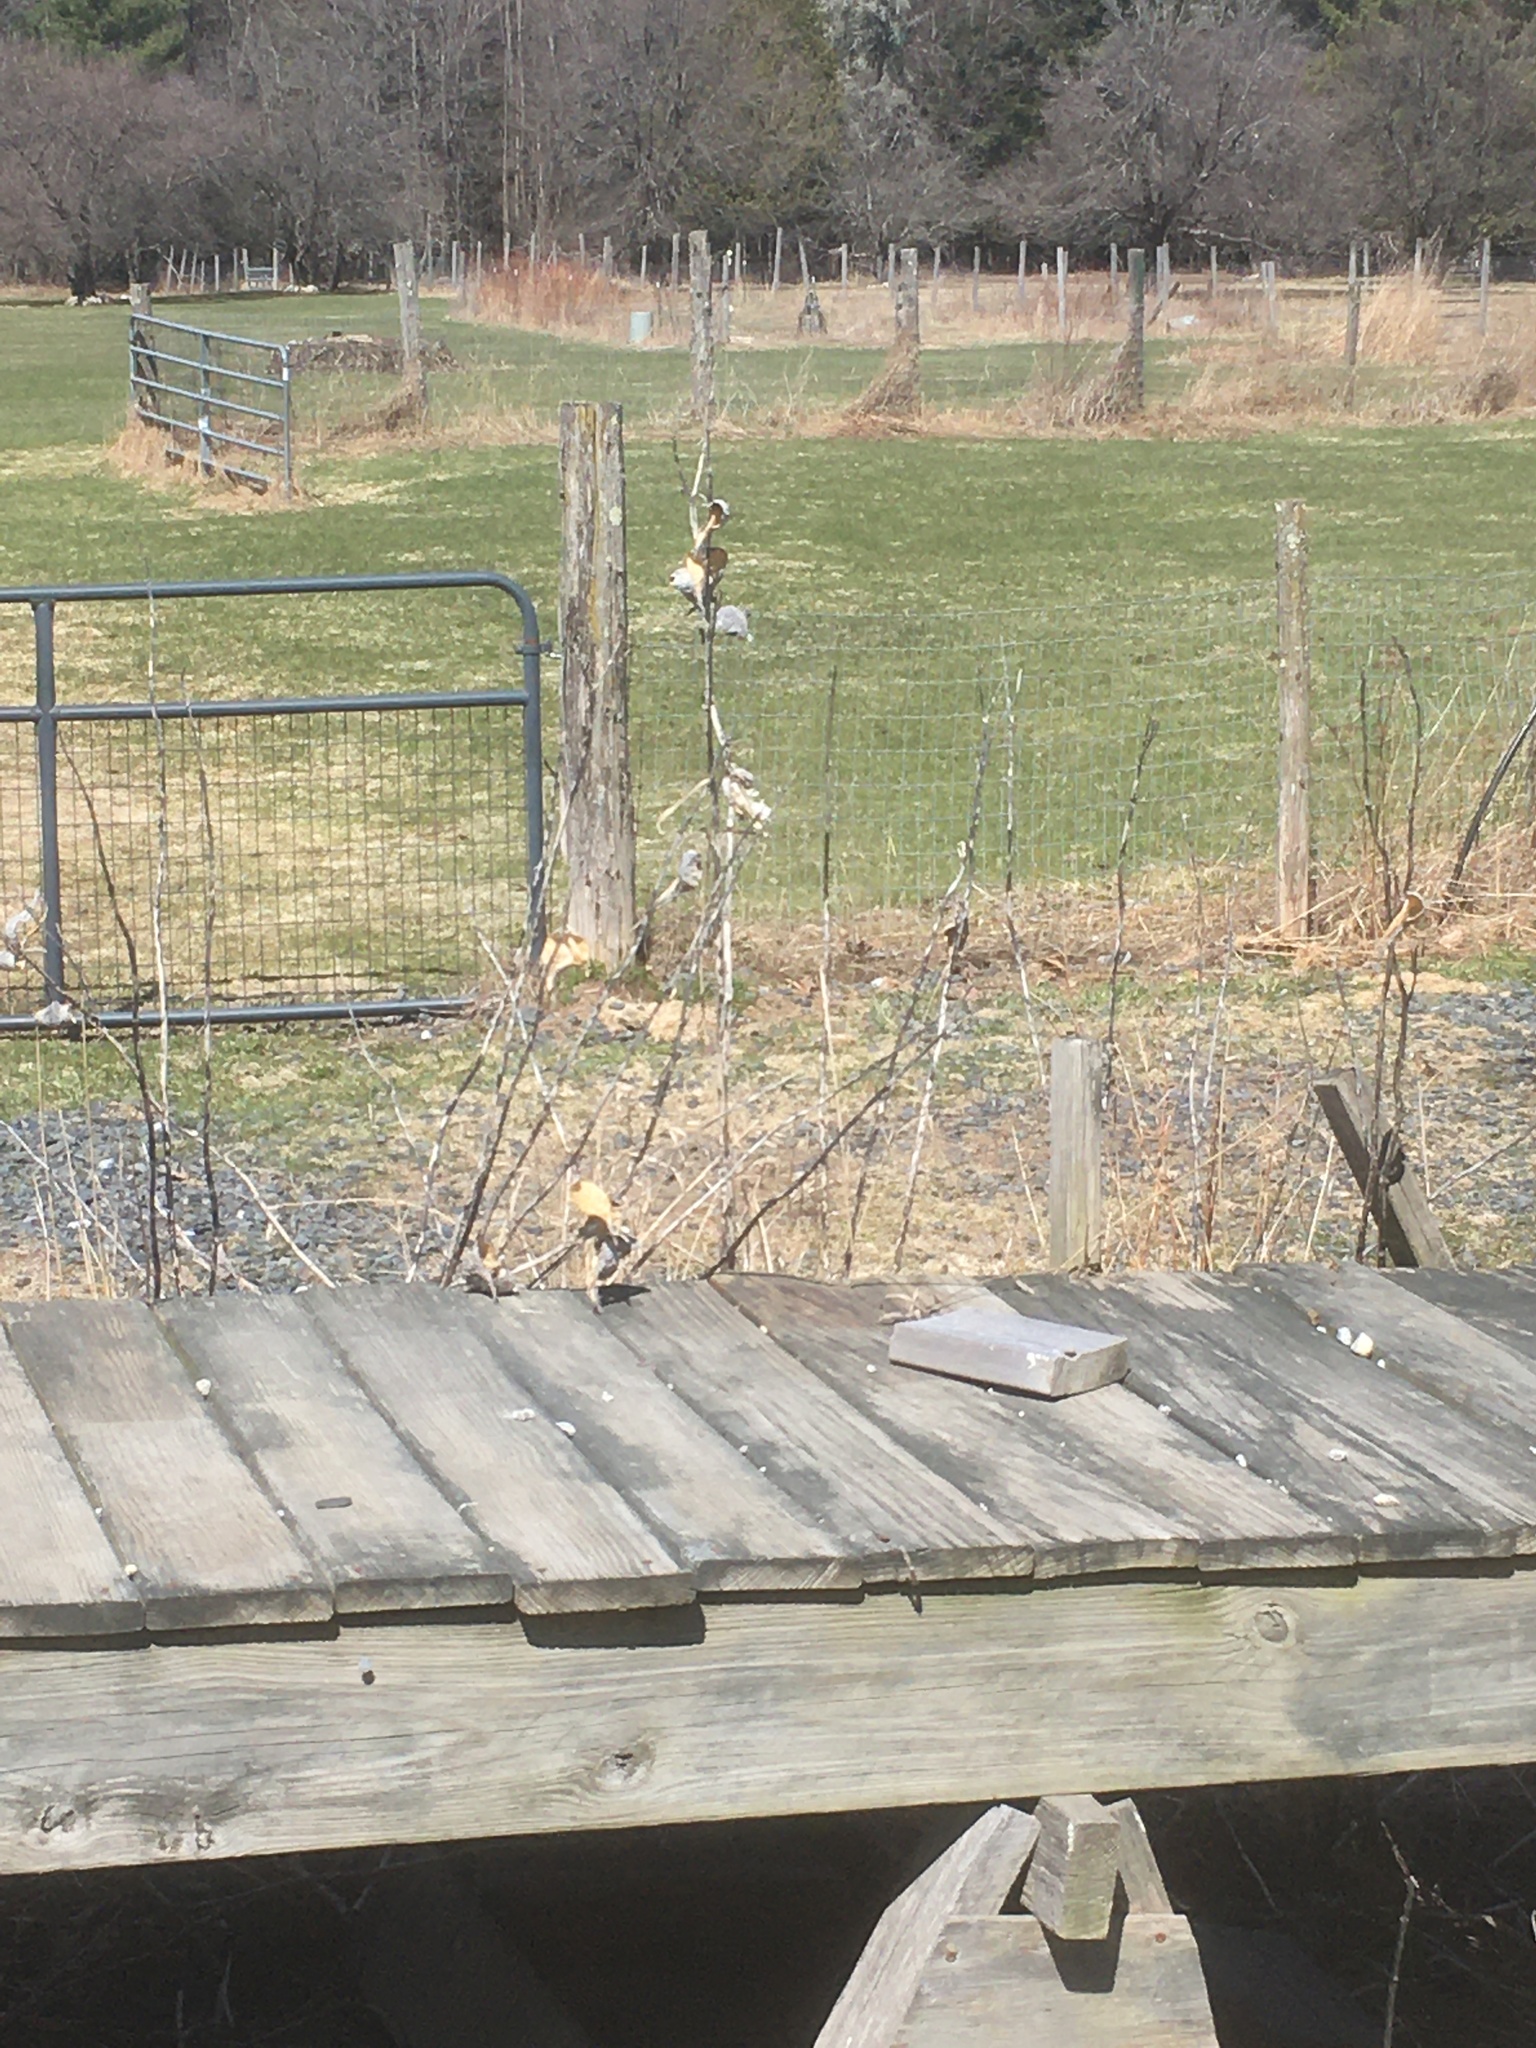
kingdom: Plantae
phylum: Tracheophyta
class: Magnoliopsida
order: Gentianales
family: Apocynaceae
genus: Asclepias
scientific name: Asclepias syriaca
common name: Common milkweed
